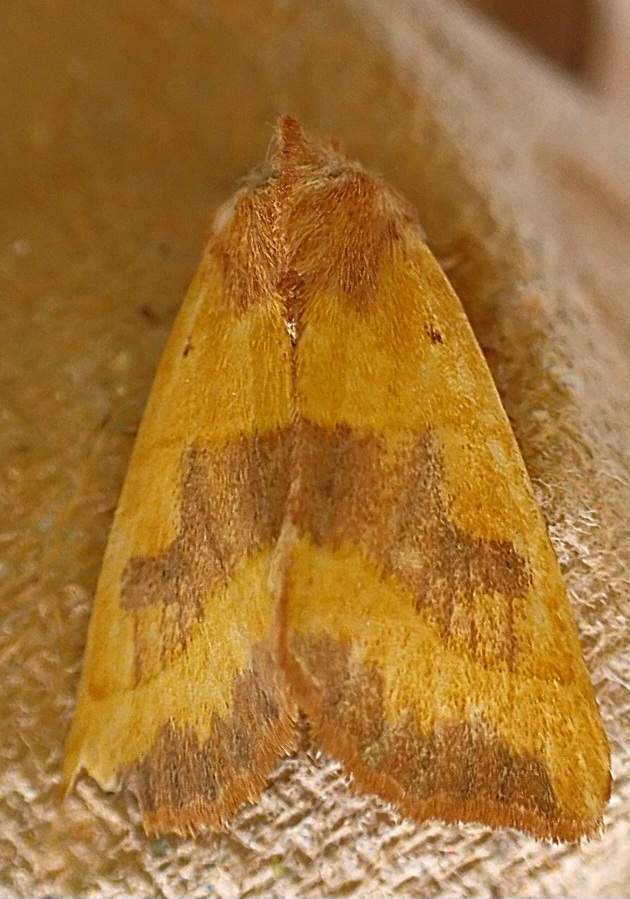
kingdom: Animalia
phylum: Arthropoda
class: Insecta
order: Lepidoptera
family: Noctuidae
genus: Atethmia
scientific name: Atethmia centrago
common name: Centre-barred sallow
